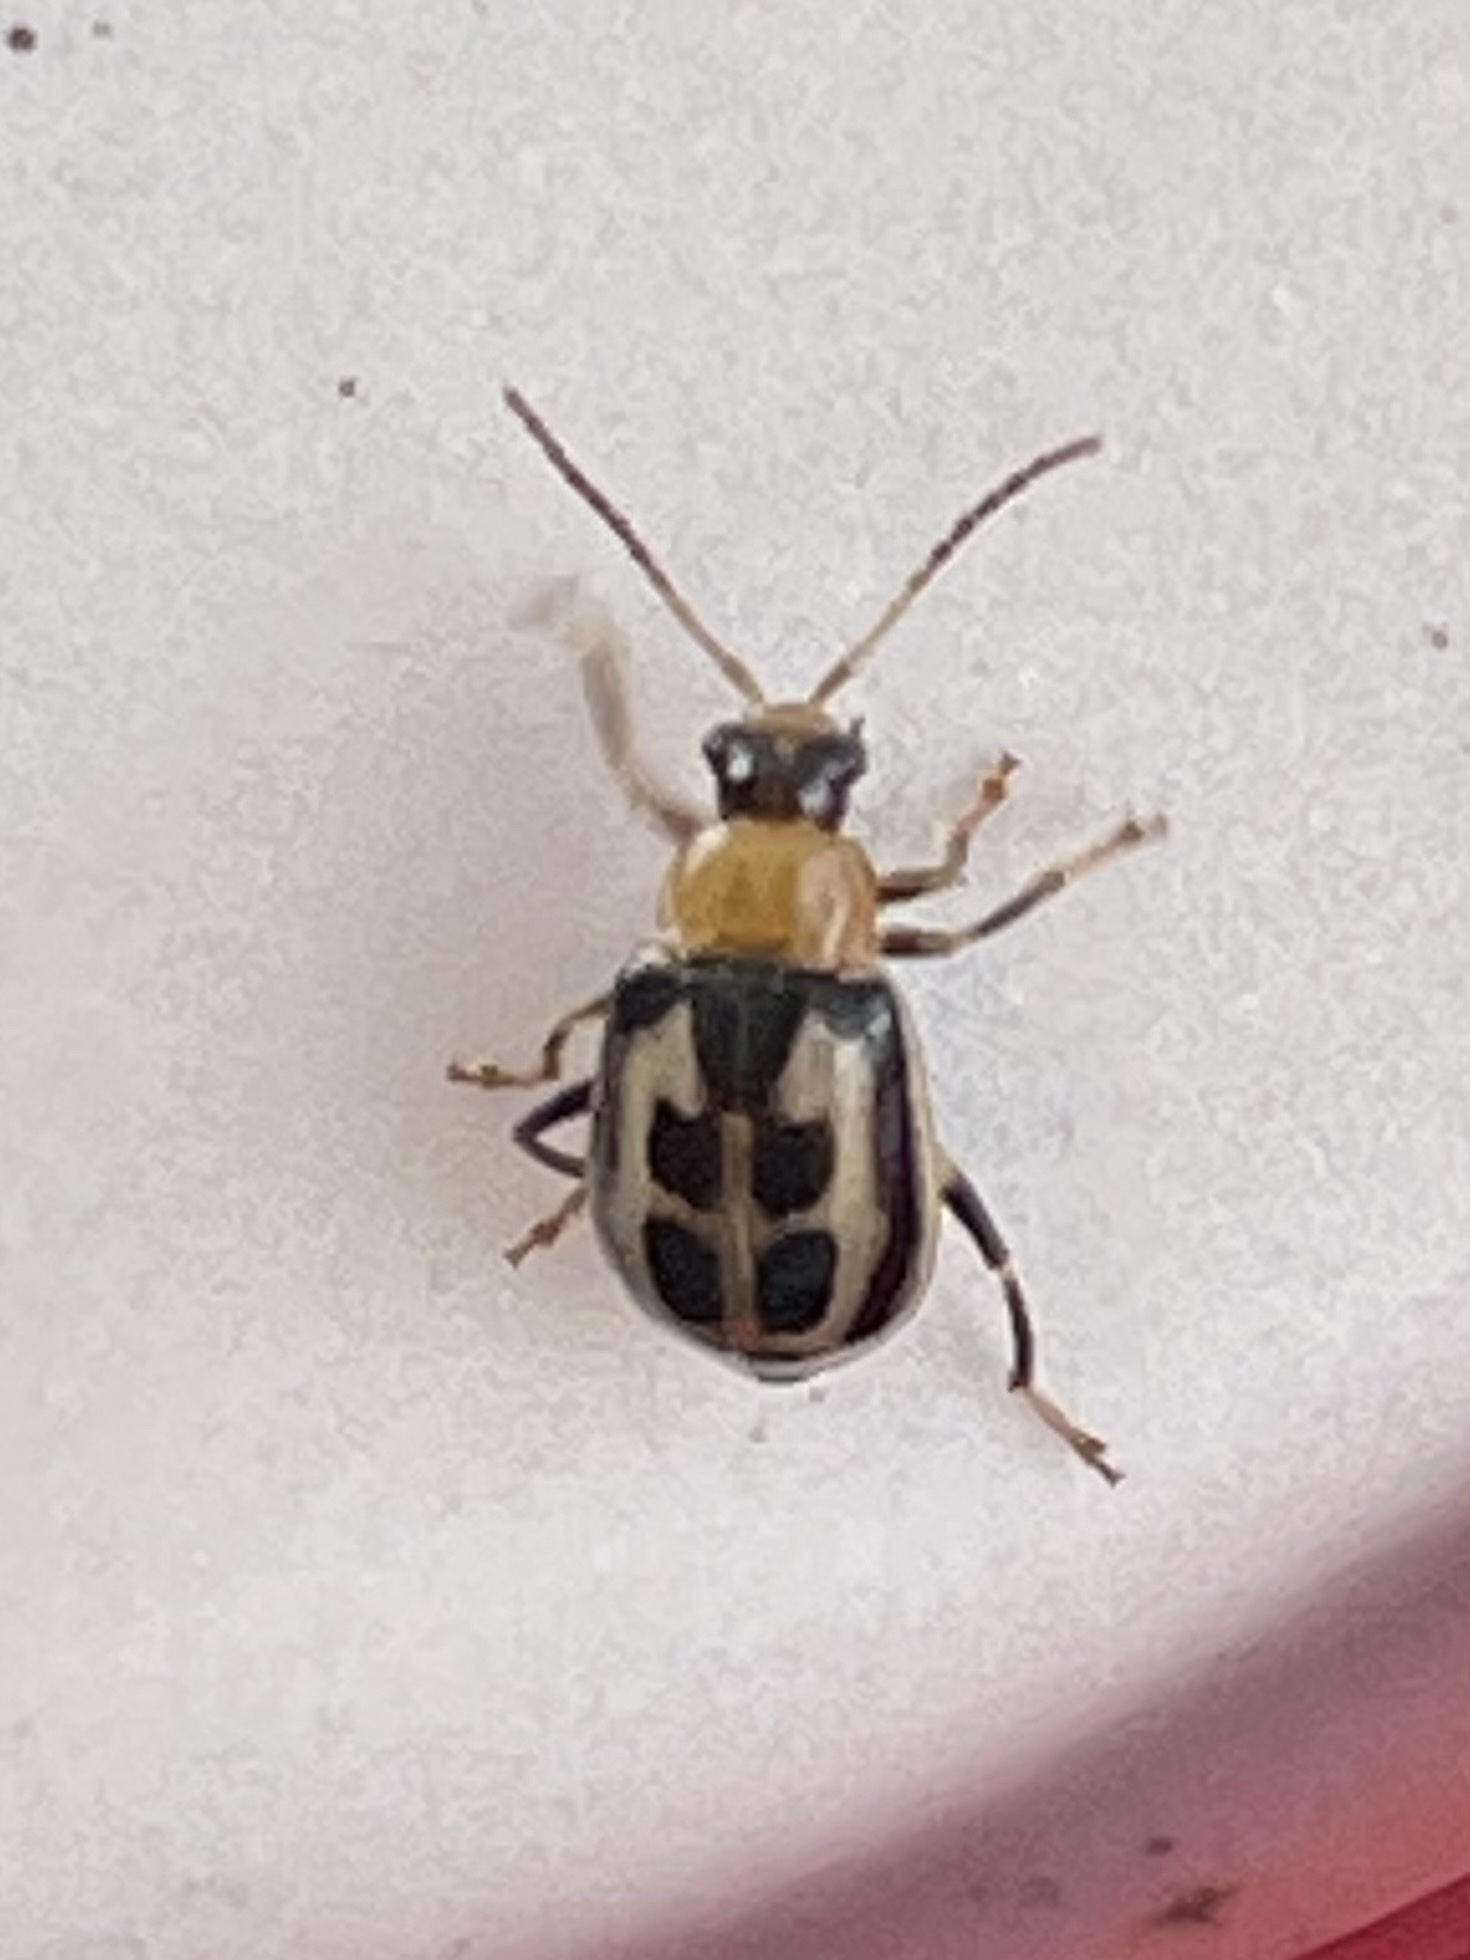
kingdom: Animalia
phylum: Arthropoda
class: Insecta
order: Coleoptera
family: Chrysomelidae
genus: Cerotoma
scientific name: Cerotoma trifurcata
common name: Bean leaf beetle
